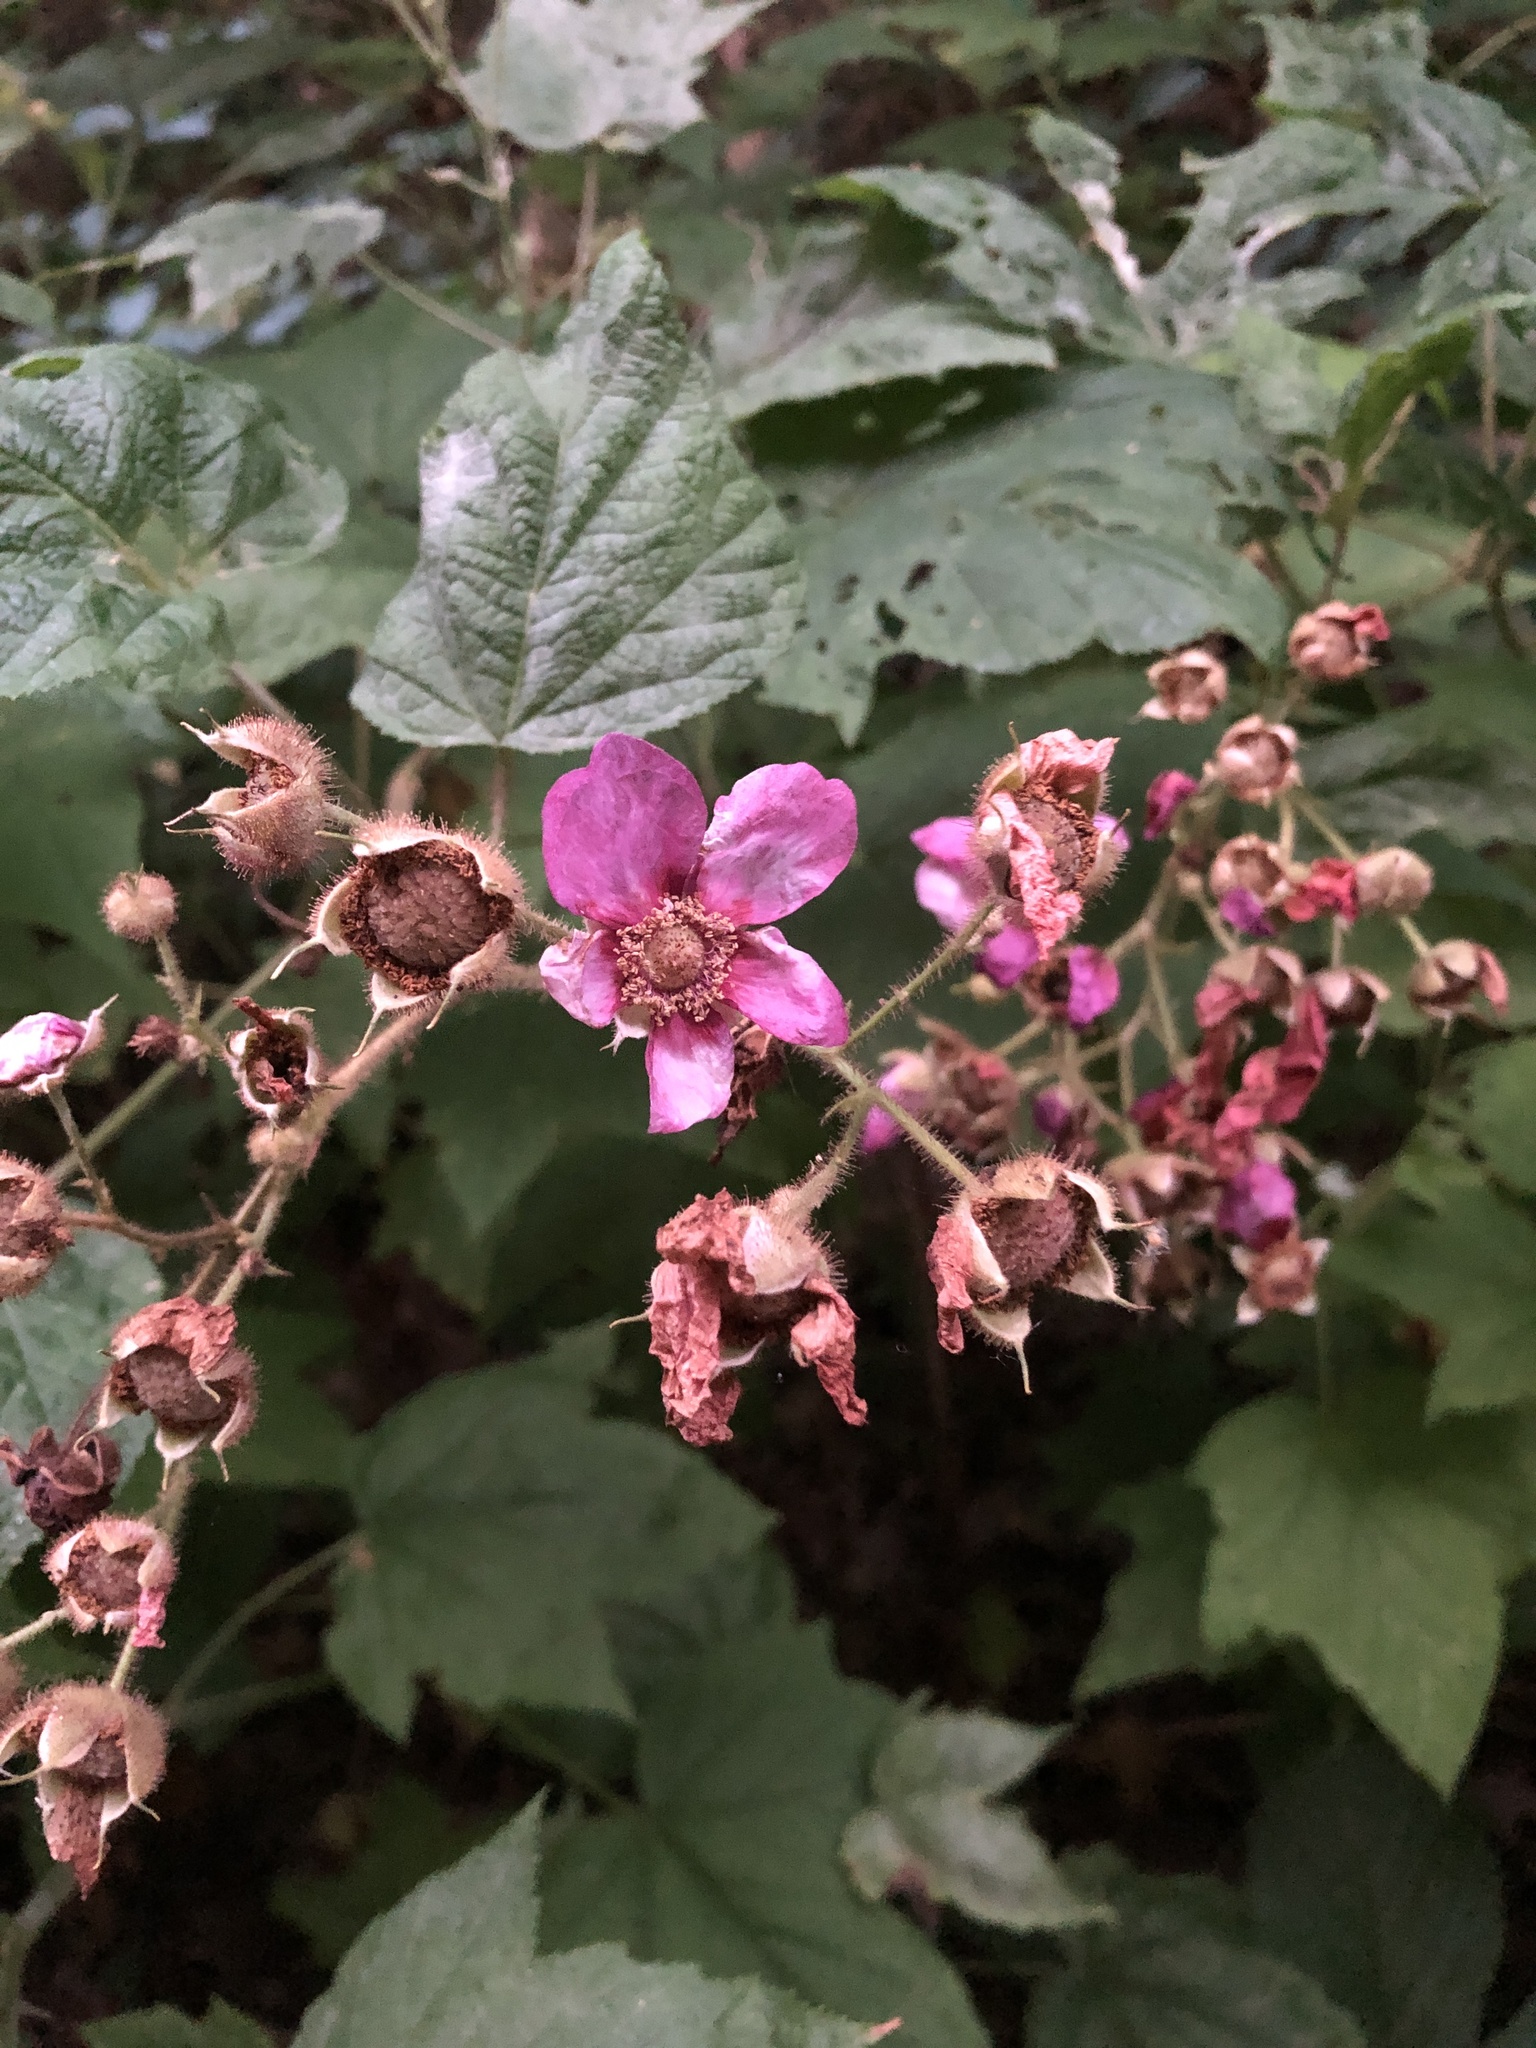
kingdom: Plantae
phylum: Tracheophyta
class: Magnoliopsida
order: Rosales
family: Rosaceae
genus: Rubus
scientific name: Rubus odoratus
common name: Purple-flowered raspberry
